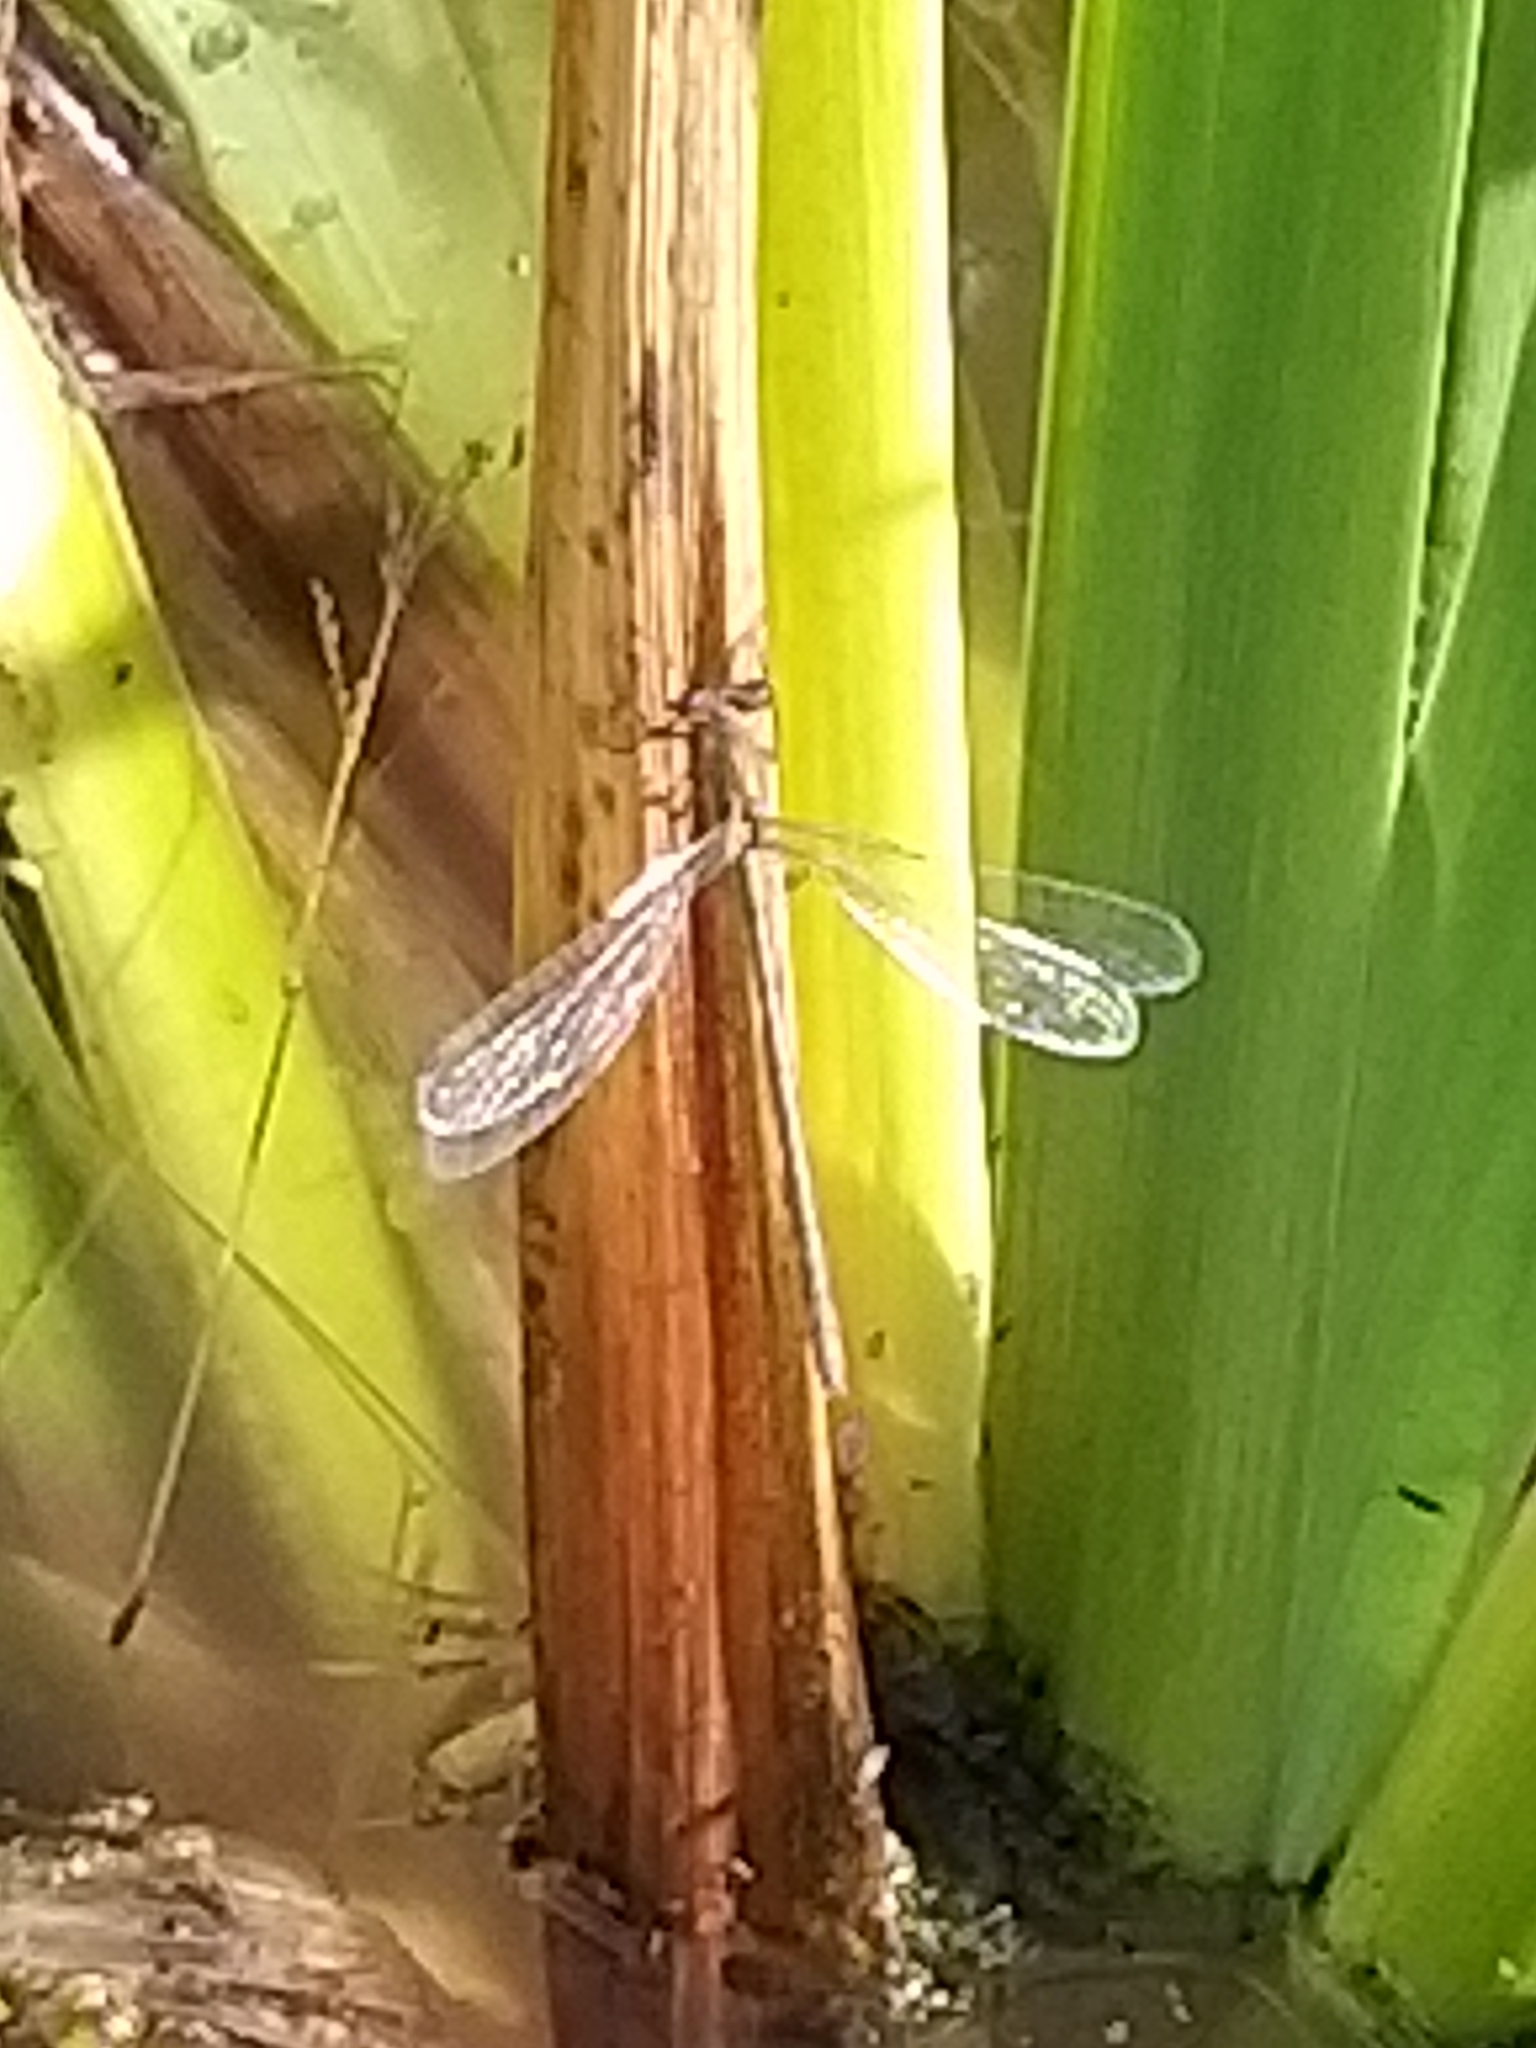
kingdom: Animalia
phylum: Arthropoda
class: Insecta
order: Odonata
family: Lestidae
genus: Lestes
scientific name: Lestes sponsa
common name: Common spreadwing
